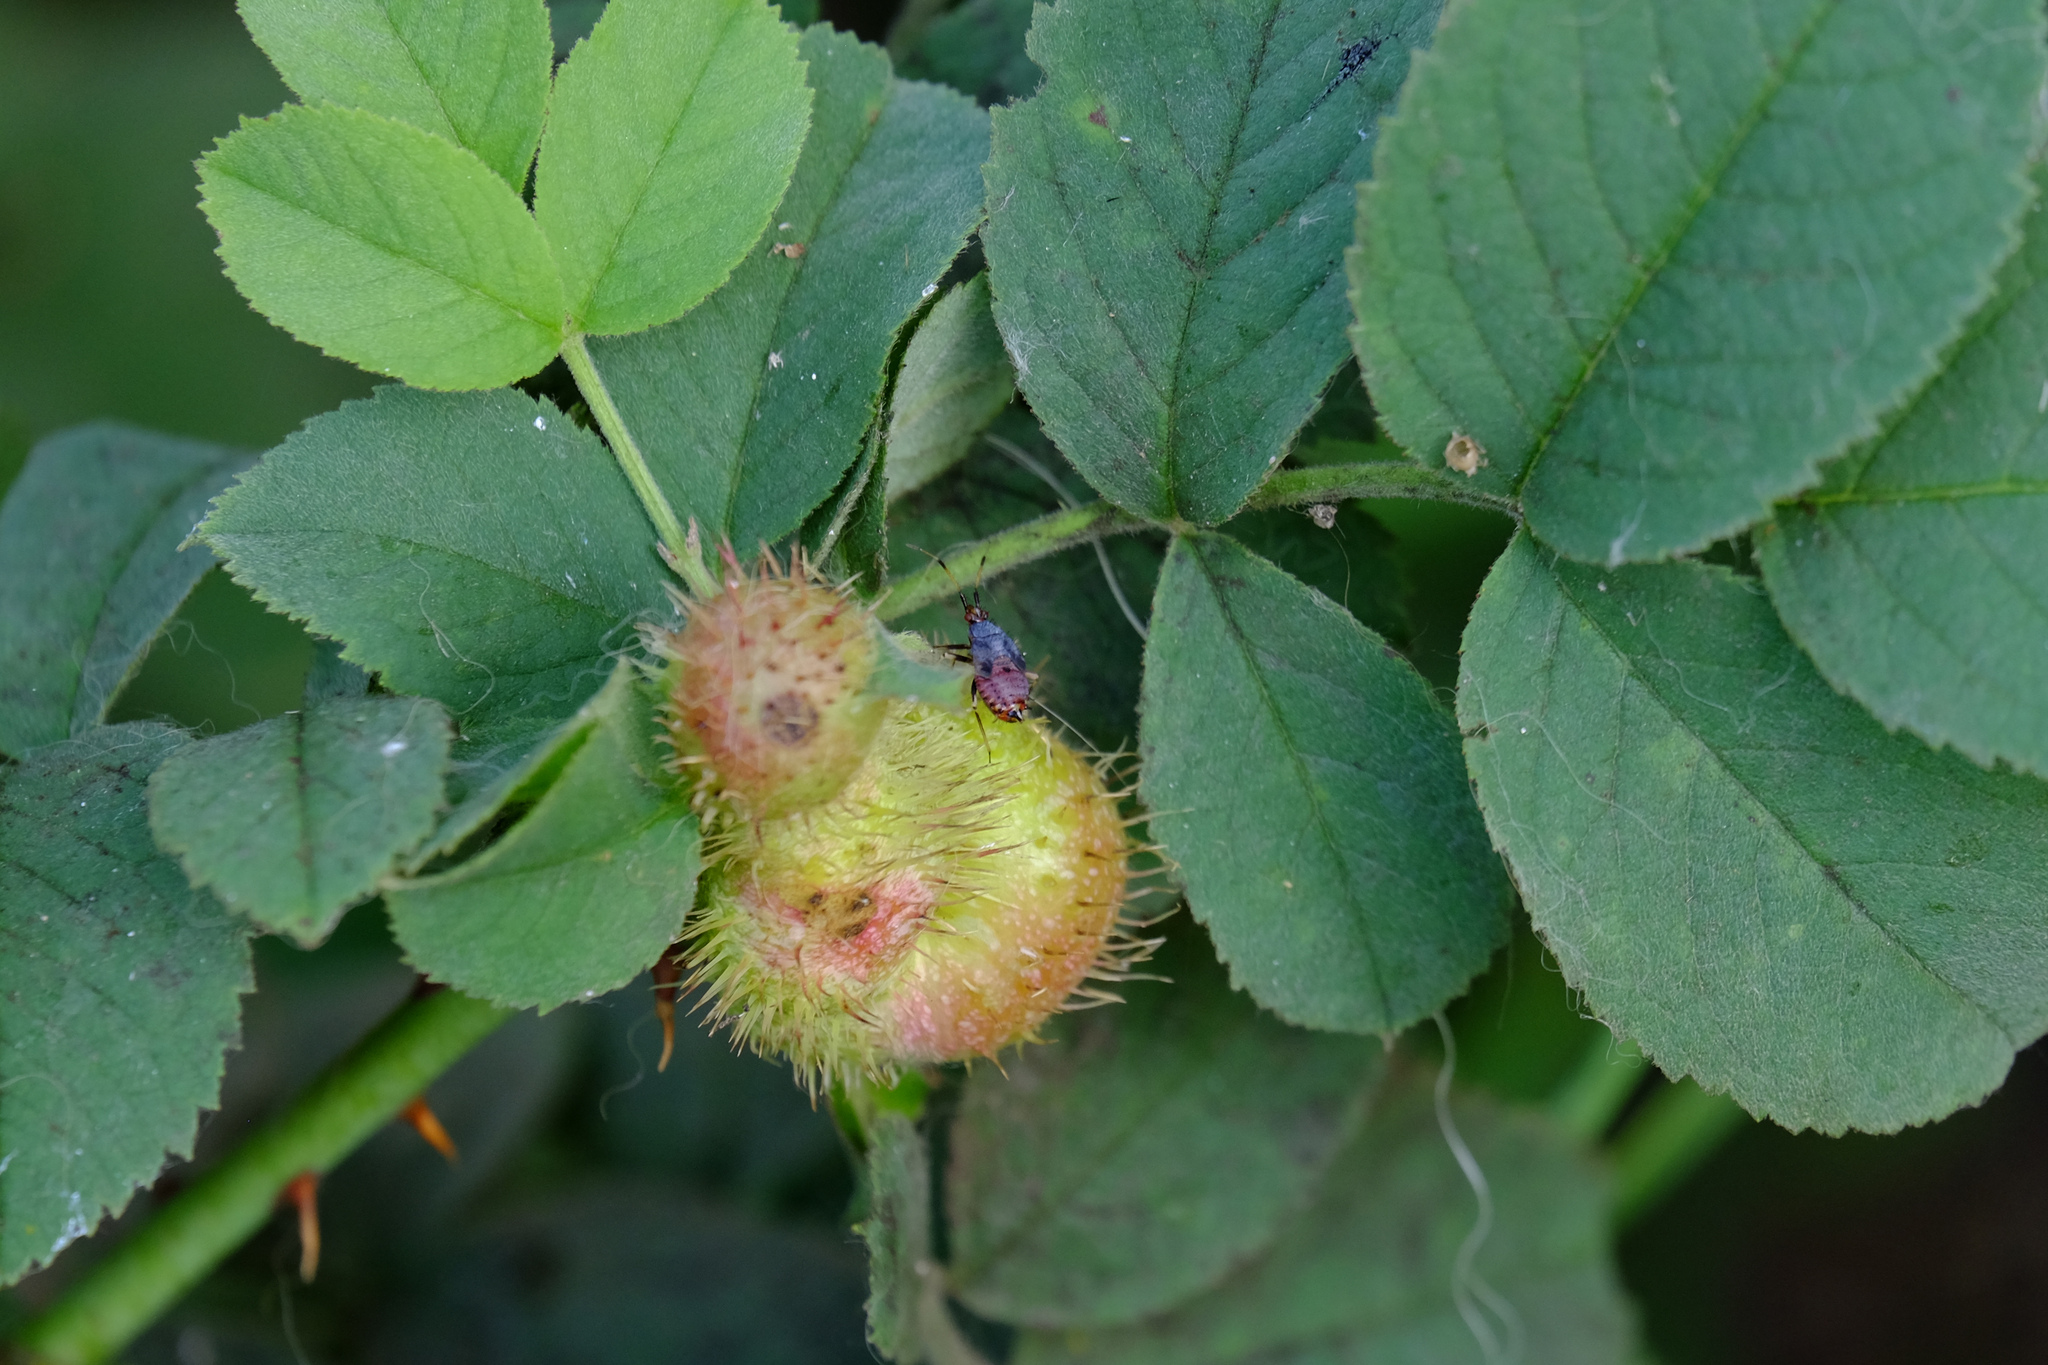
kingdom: Animalia
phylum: Arthropoda
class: Insecta
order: Hymenoptera
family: Cynipidae
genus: Diplolepis
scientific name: Diplolepis mayri
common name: Gall wasp
